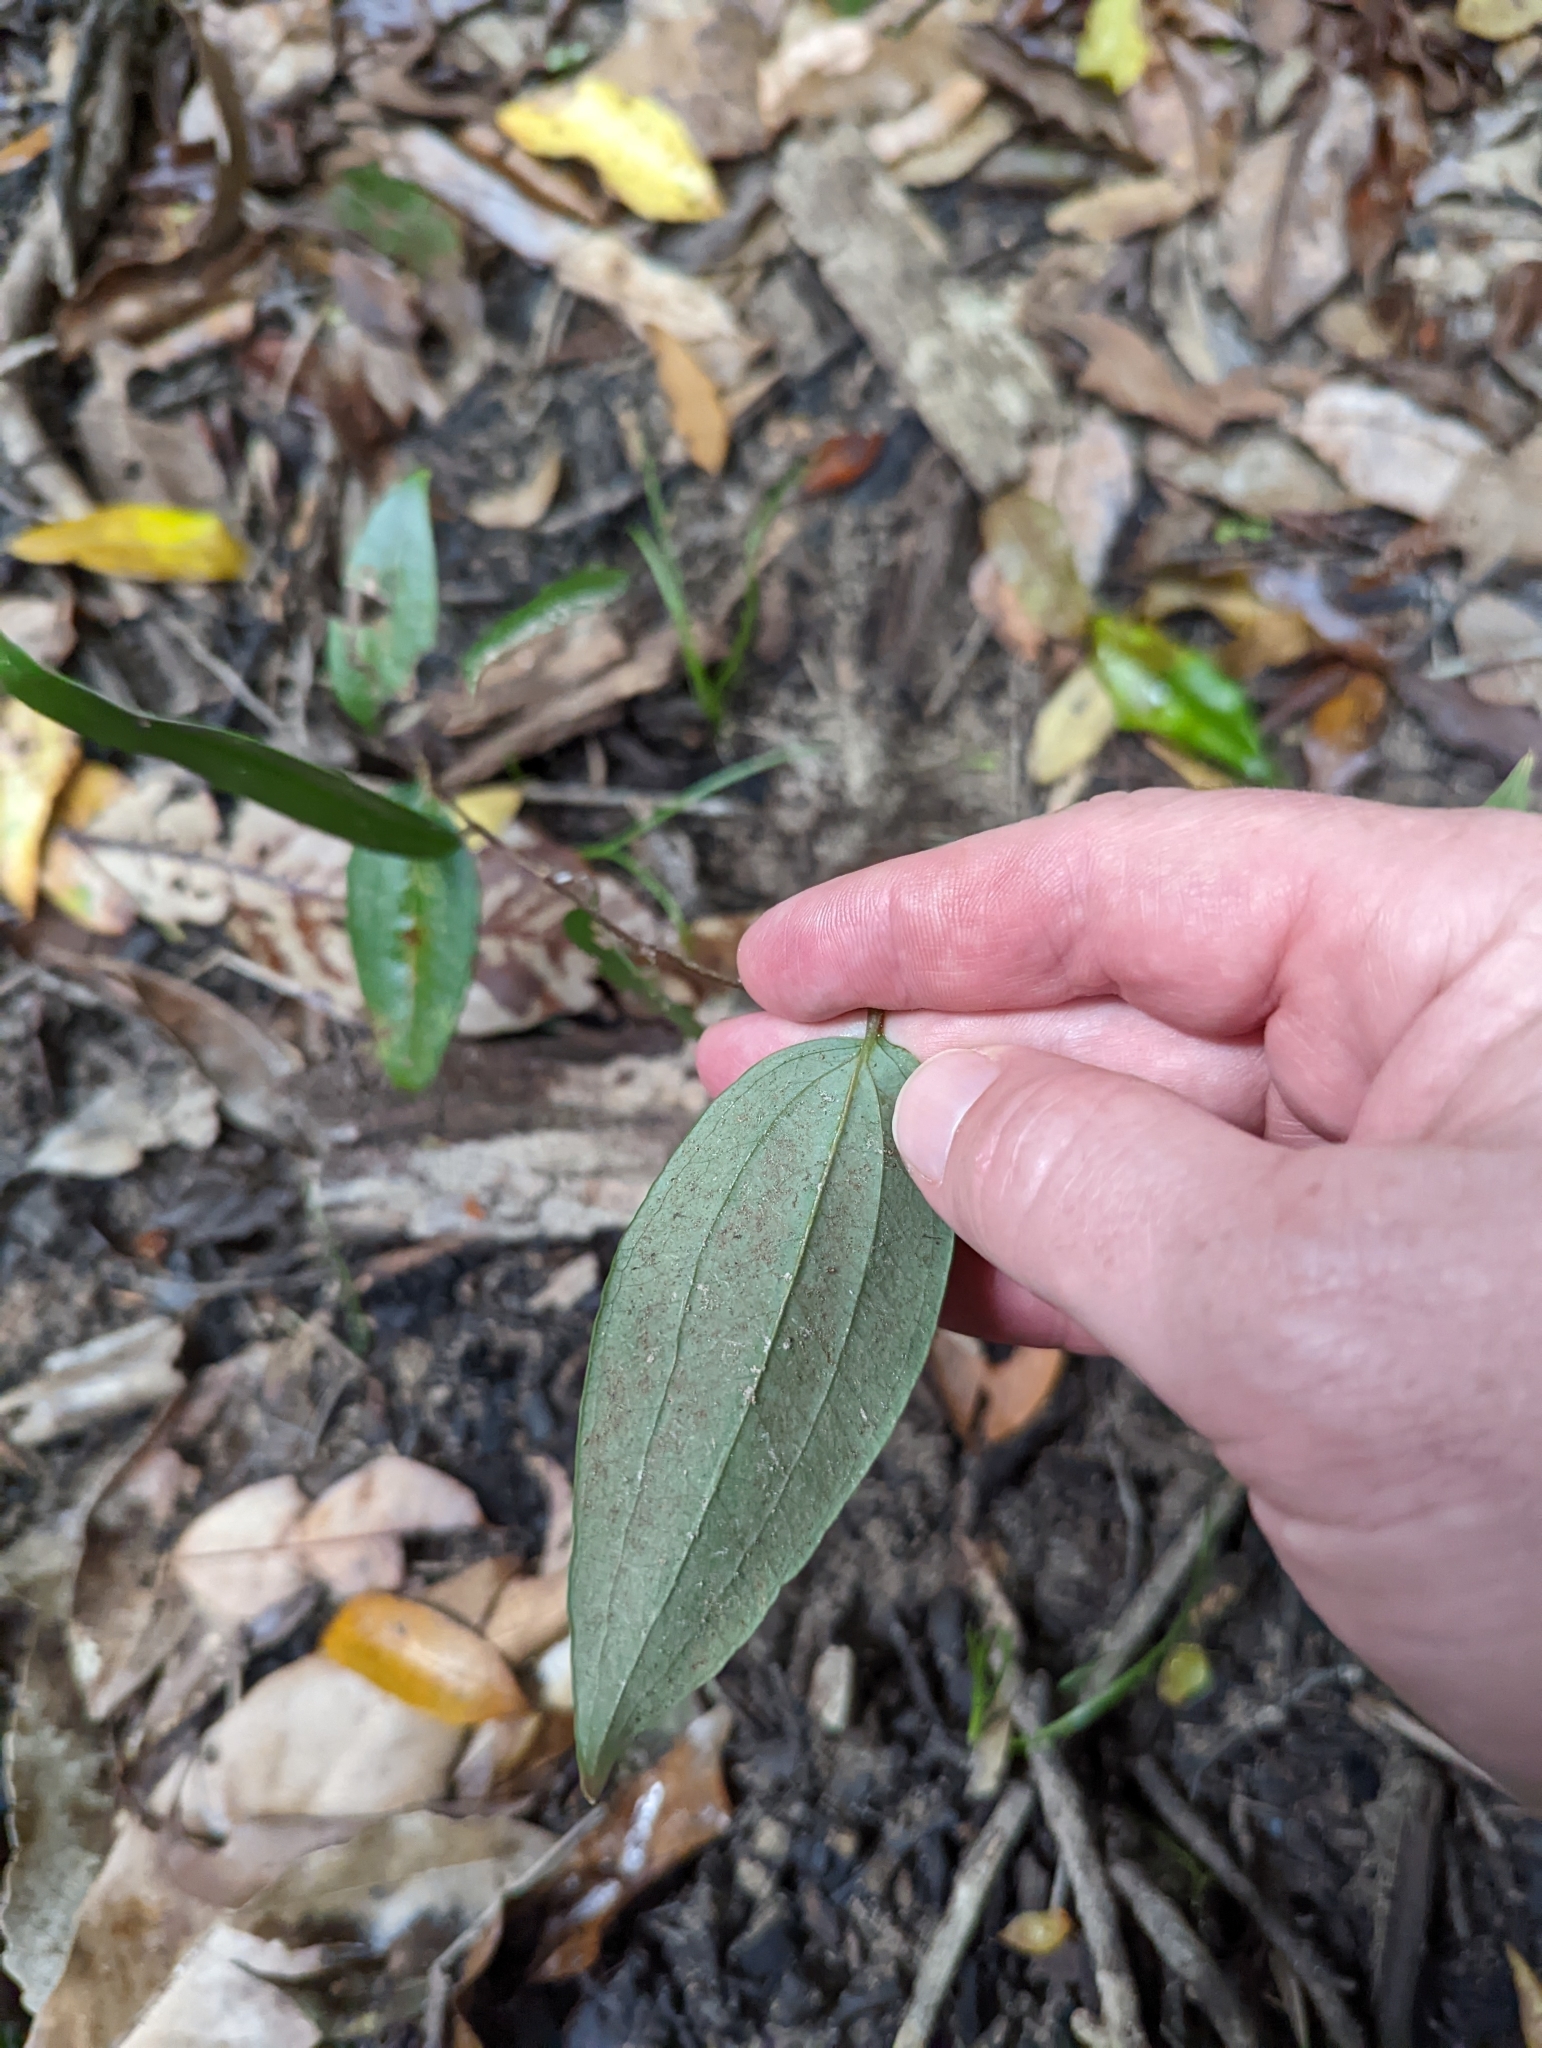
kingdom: Plantae
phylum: Tracheophyta
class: Liliopsida
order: Liliales
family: Smilacaceae
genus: Smilax
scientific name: Smilax glyciphylla
